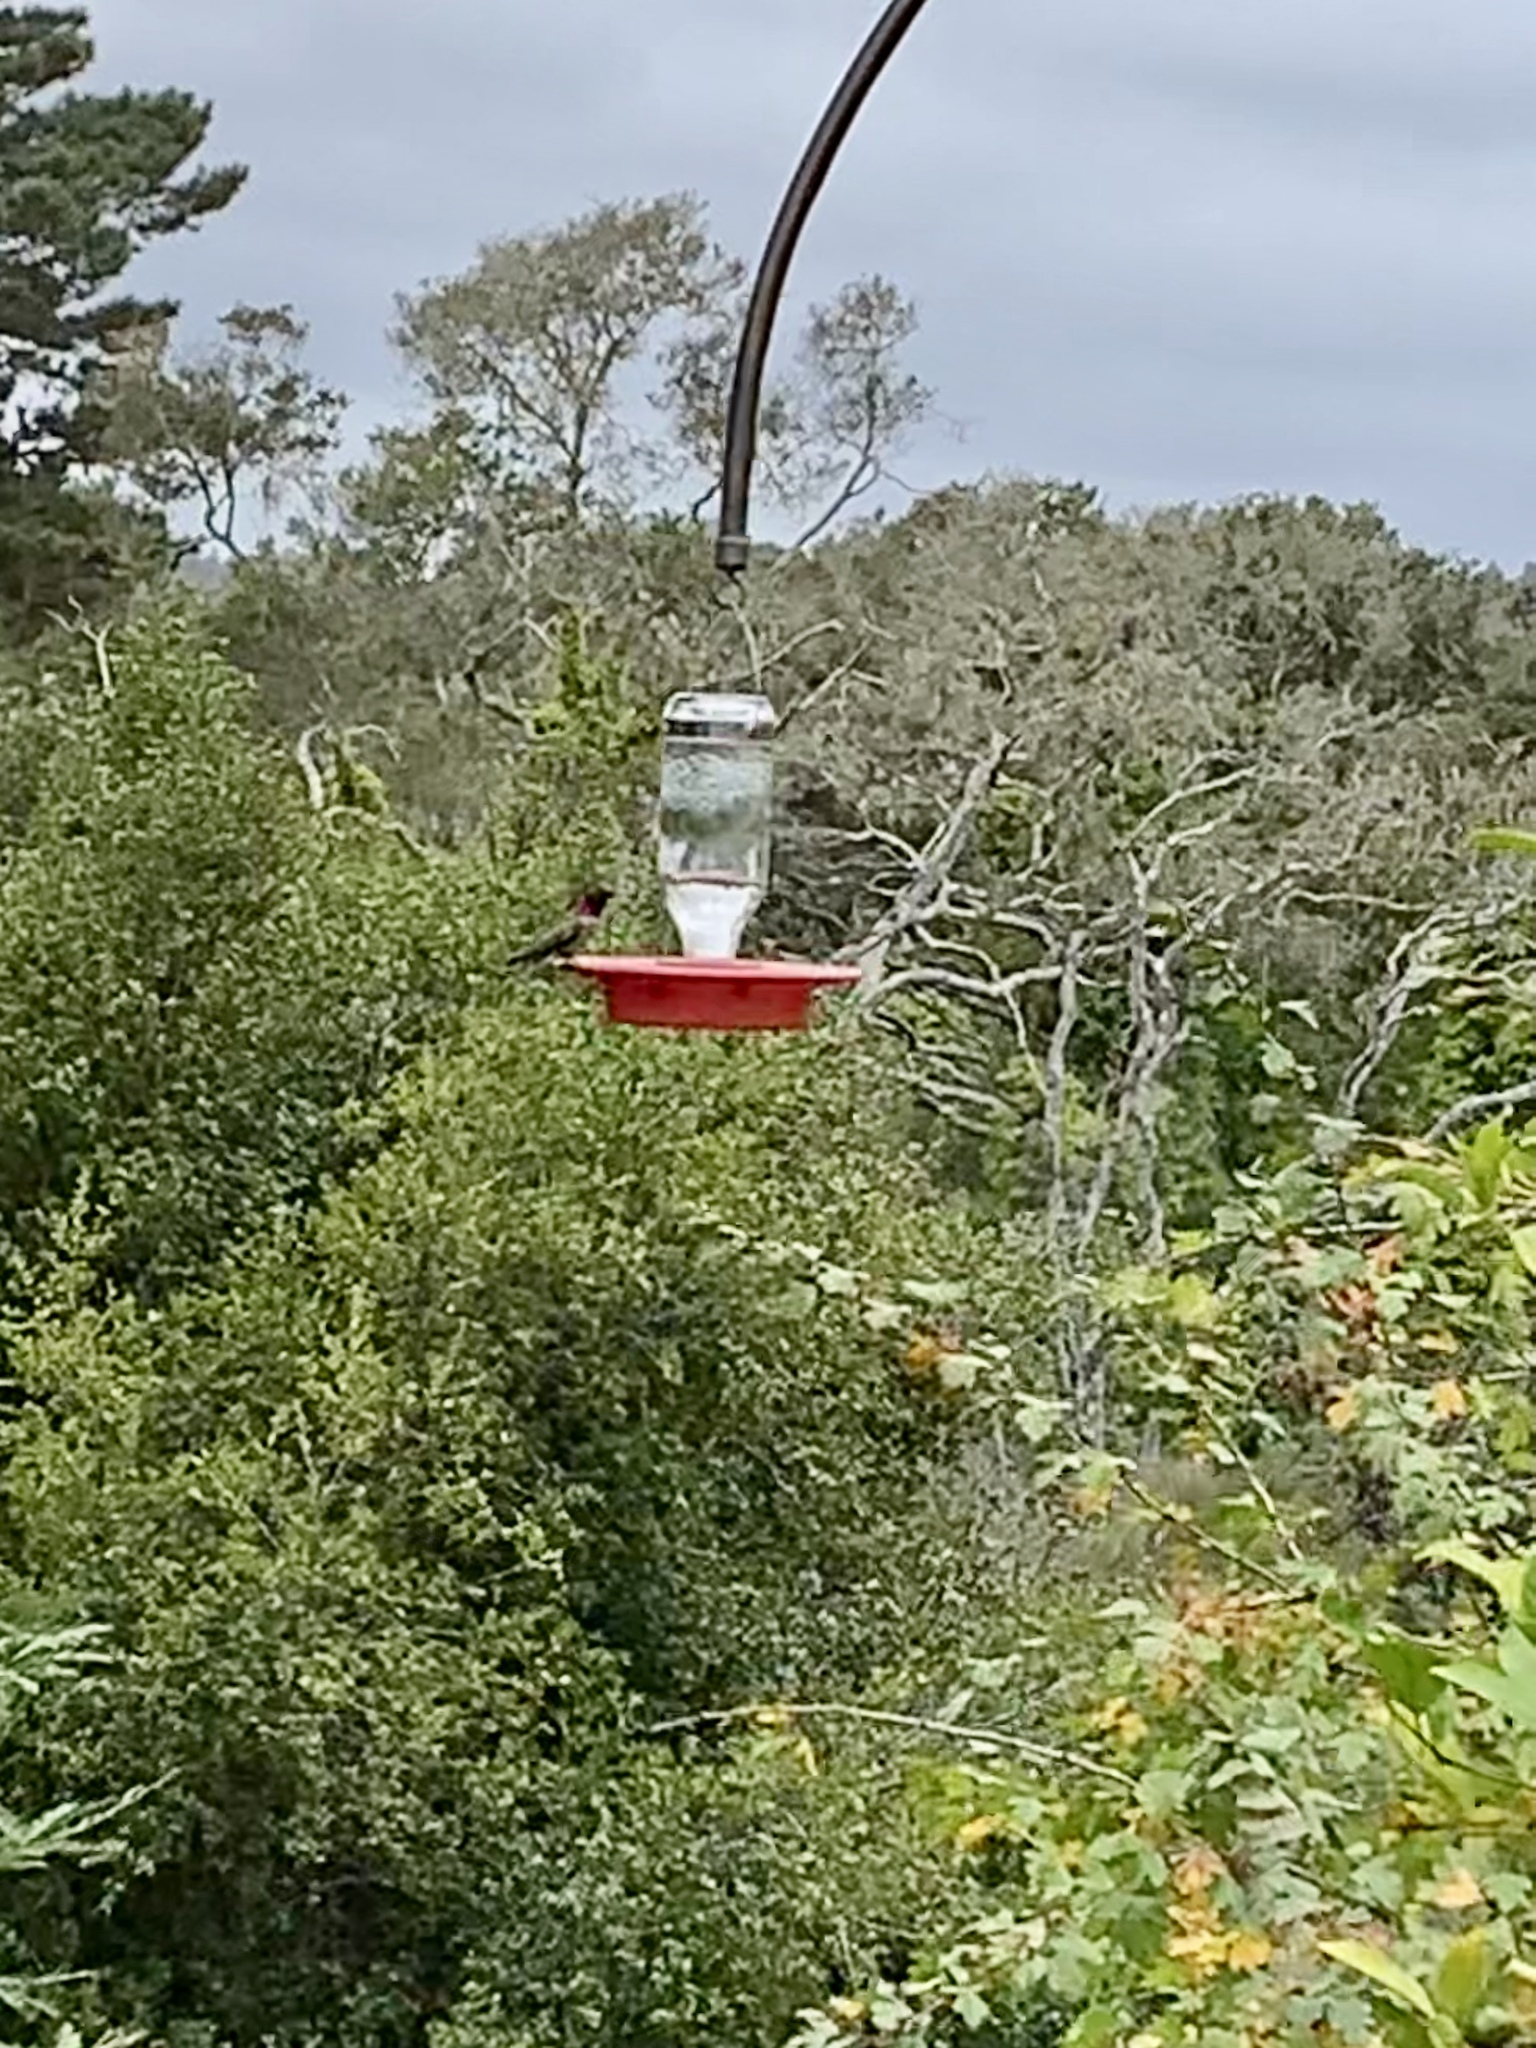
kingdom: Animalia
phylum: Chordata
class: Aves
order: Apodiformes
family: Trochilidae
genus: Calypte
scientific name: Calypte anna
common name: Anna's hummingbird
